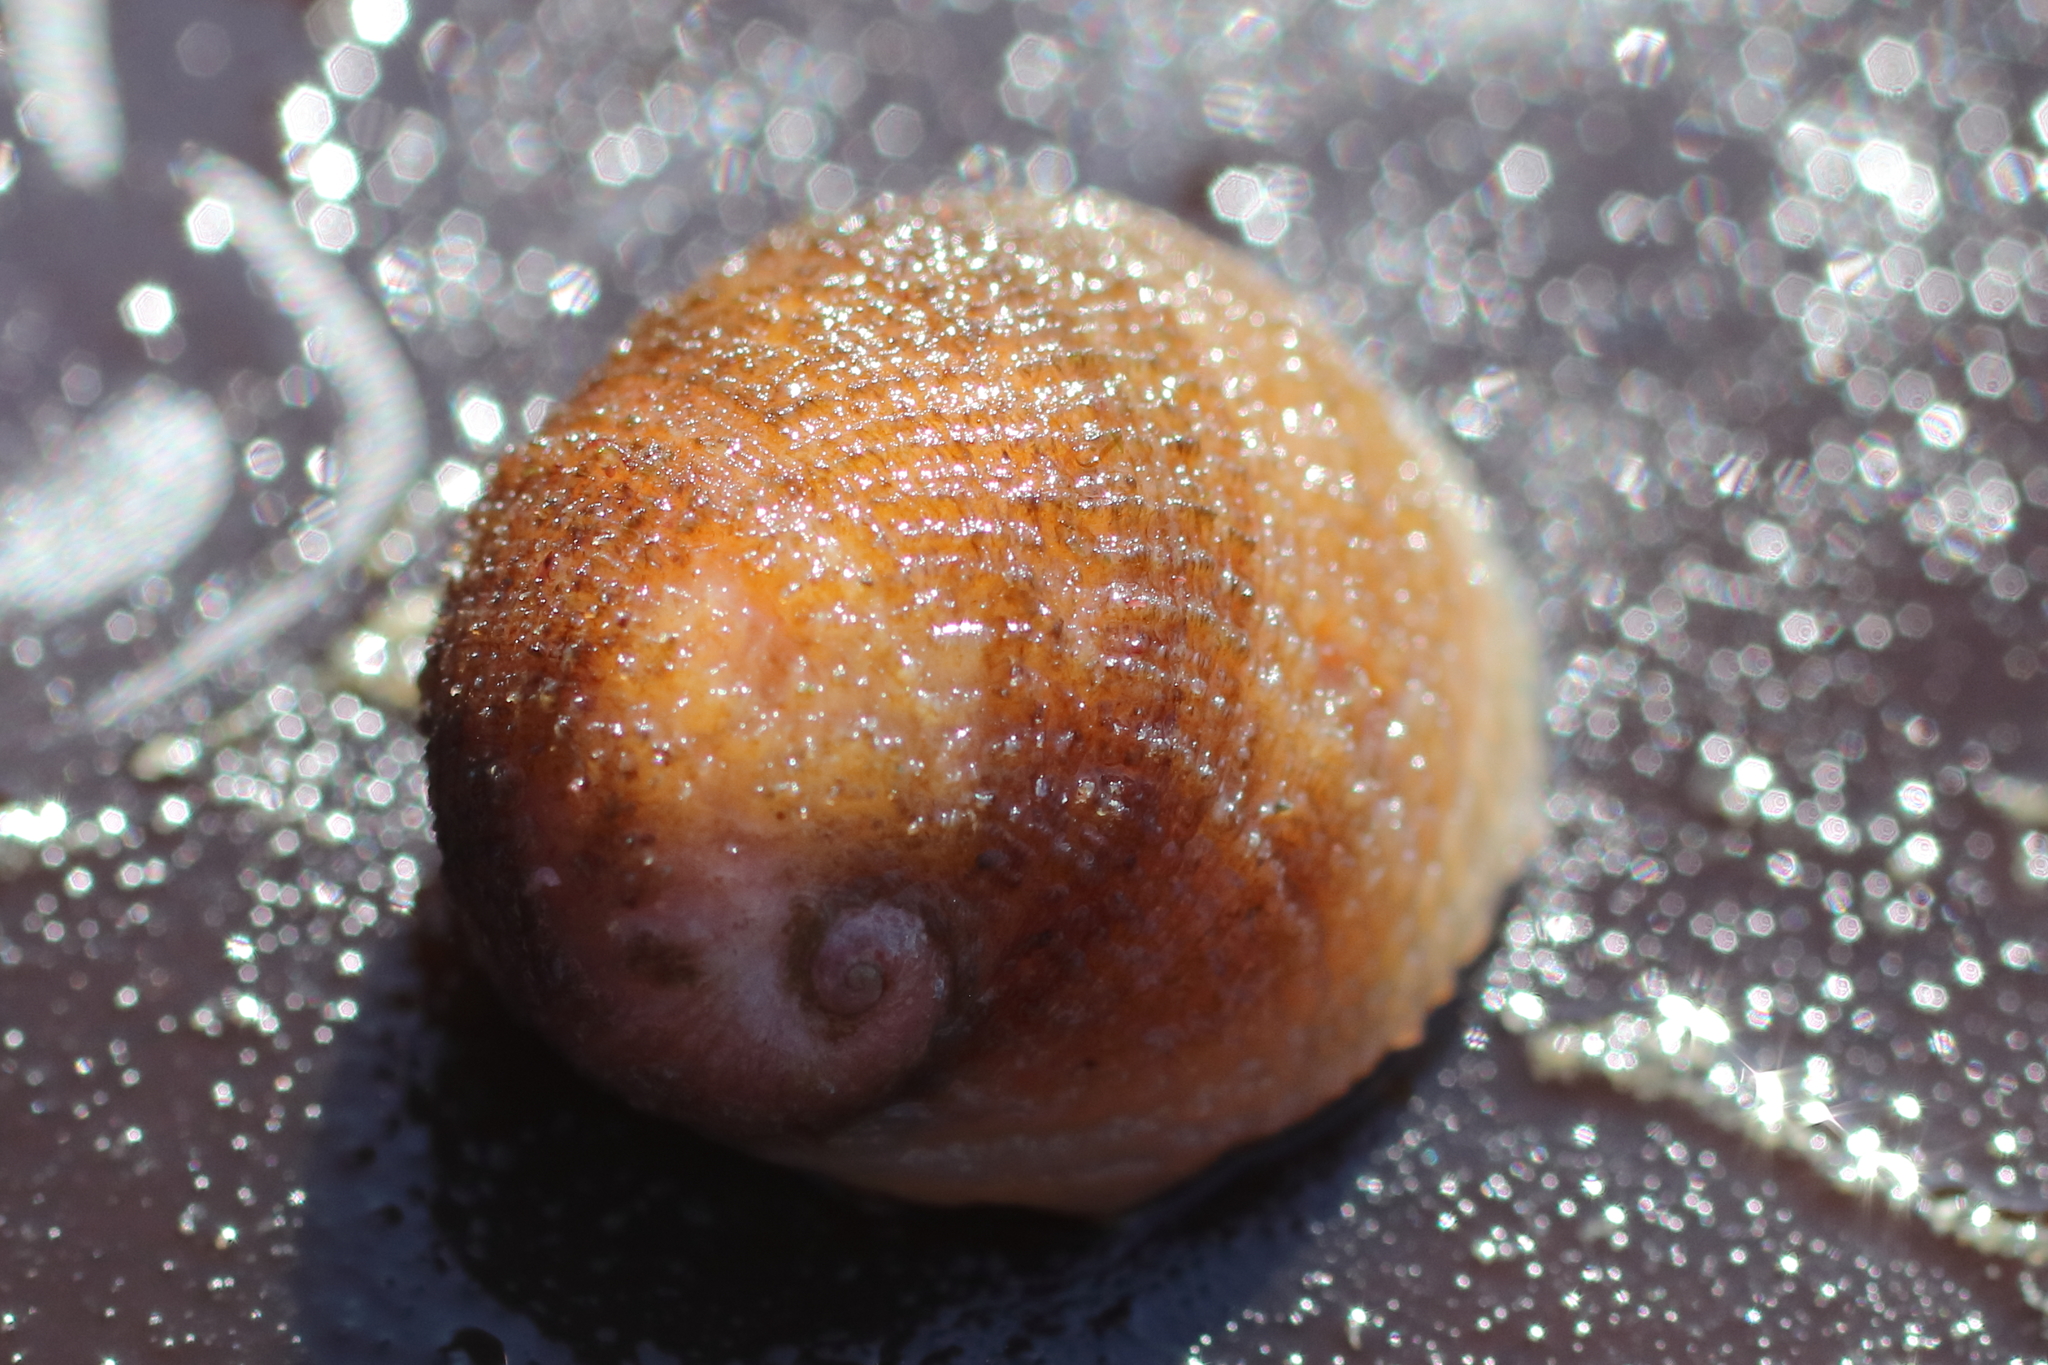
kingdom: Animalia
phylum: Mollusca
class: Gastropoda
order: Littorinimorpha
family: Velutinidae
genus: Velutina
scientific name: Velutina velutina
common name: Smooth lamellaria
